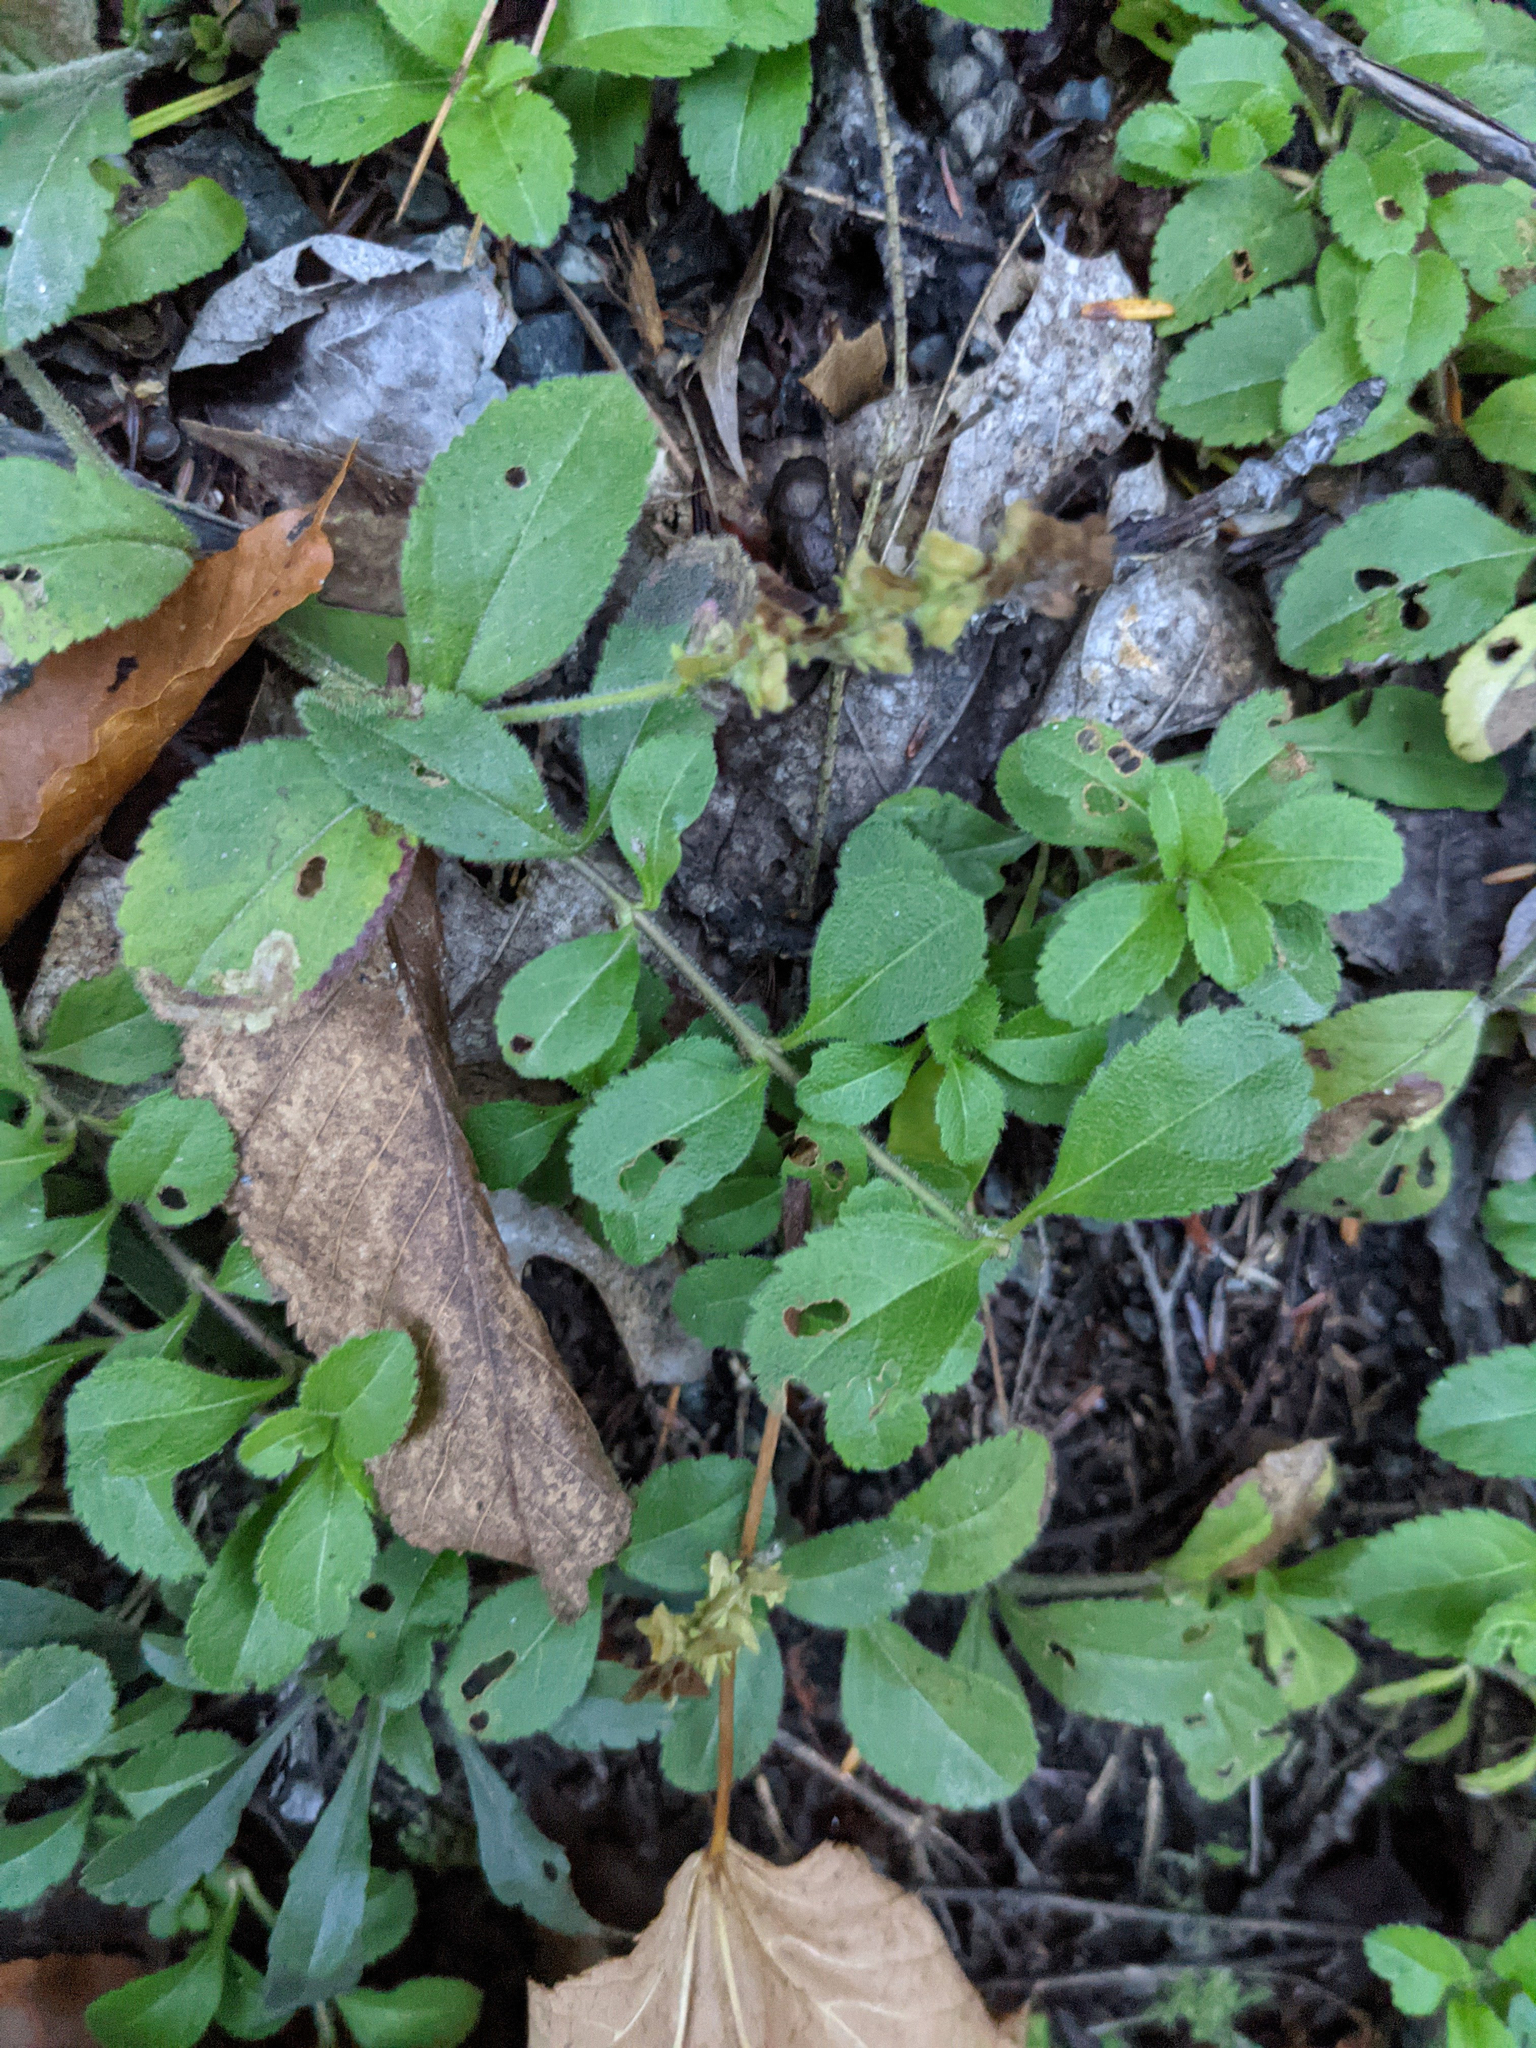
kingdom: Plantae
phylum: Tracheophyta
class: Magnoliopsida
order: Lamiales
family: Plantaginaceae
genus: Veronica
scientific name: Veronica officinalis
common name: Common speedwell
